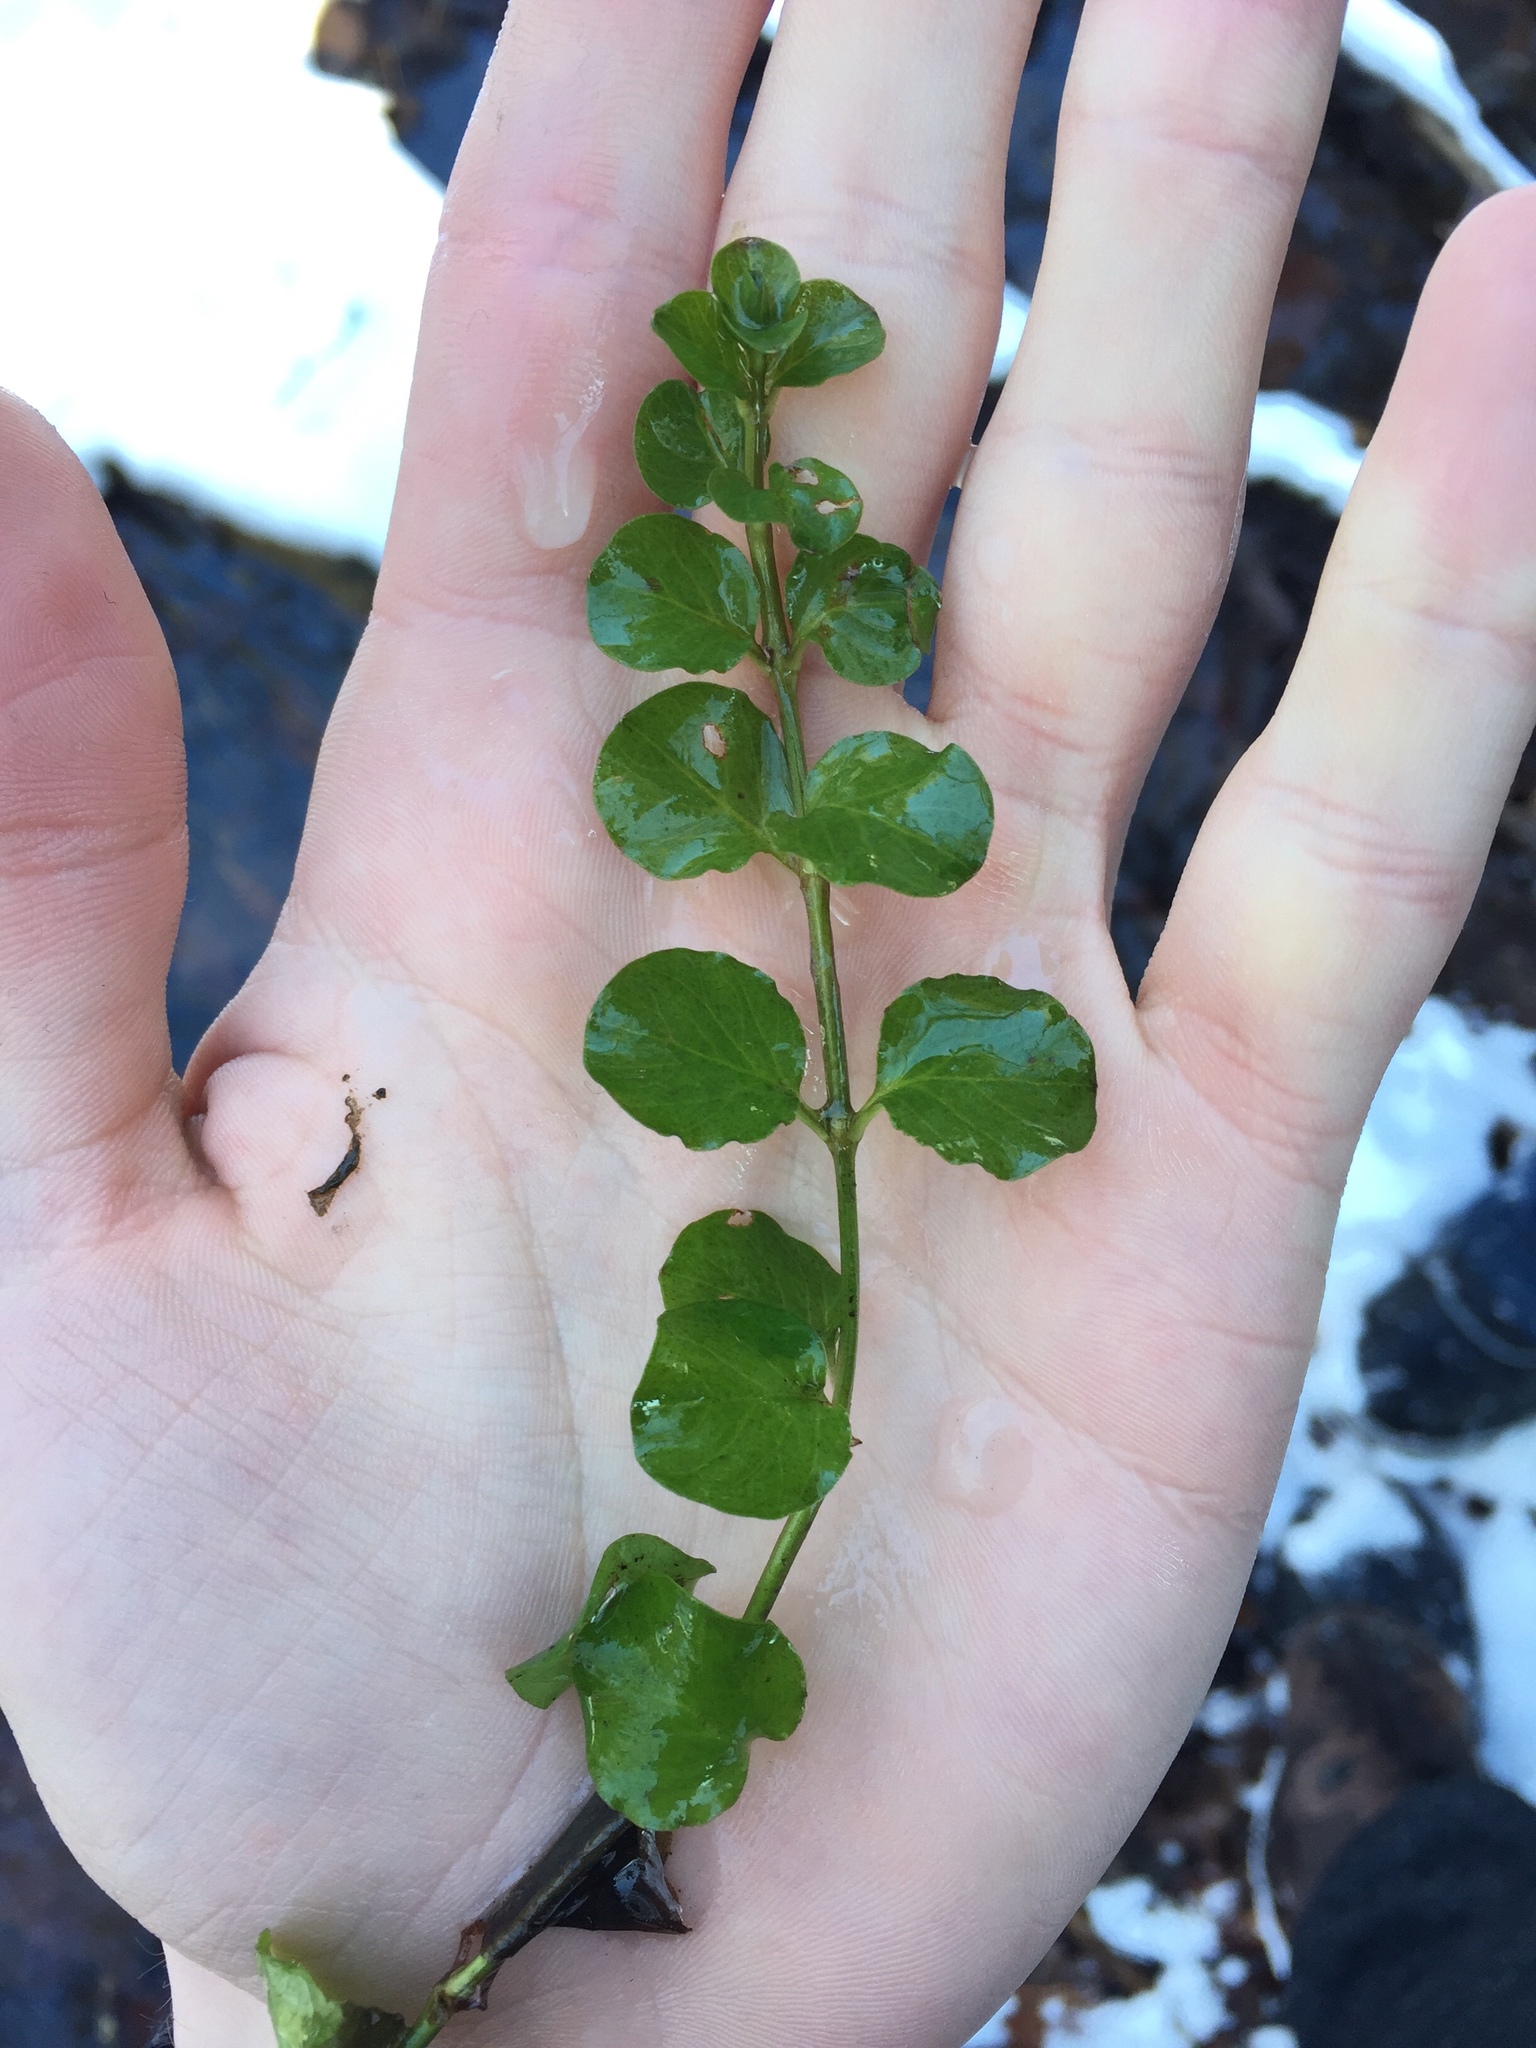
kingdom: Plantae
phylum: Tracheophyta
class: Magnoliopsida
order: Ericales
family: Primulaceae
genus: Lysimachia
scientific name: Lysimachia nummularia
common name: Moneywort
